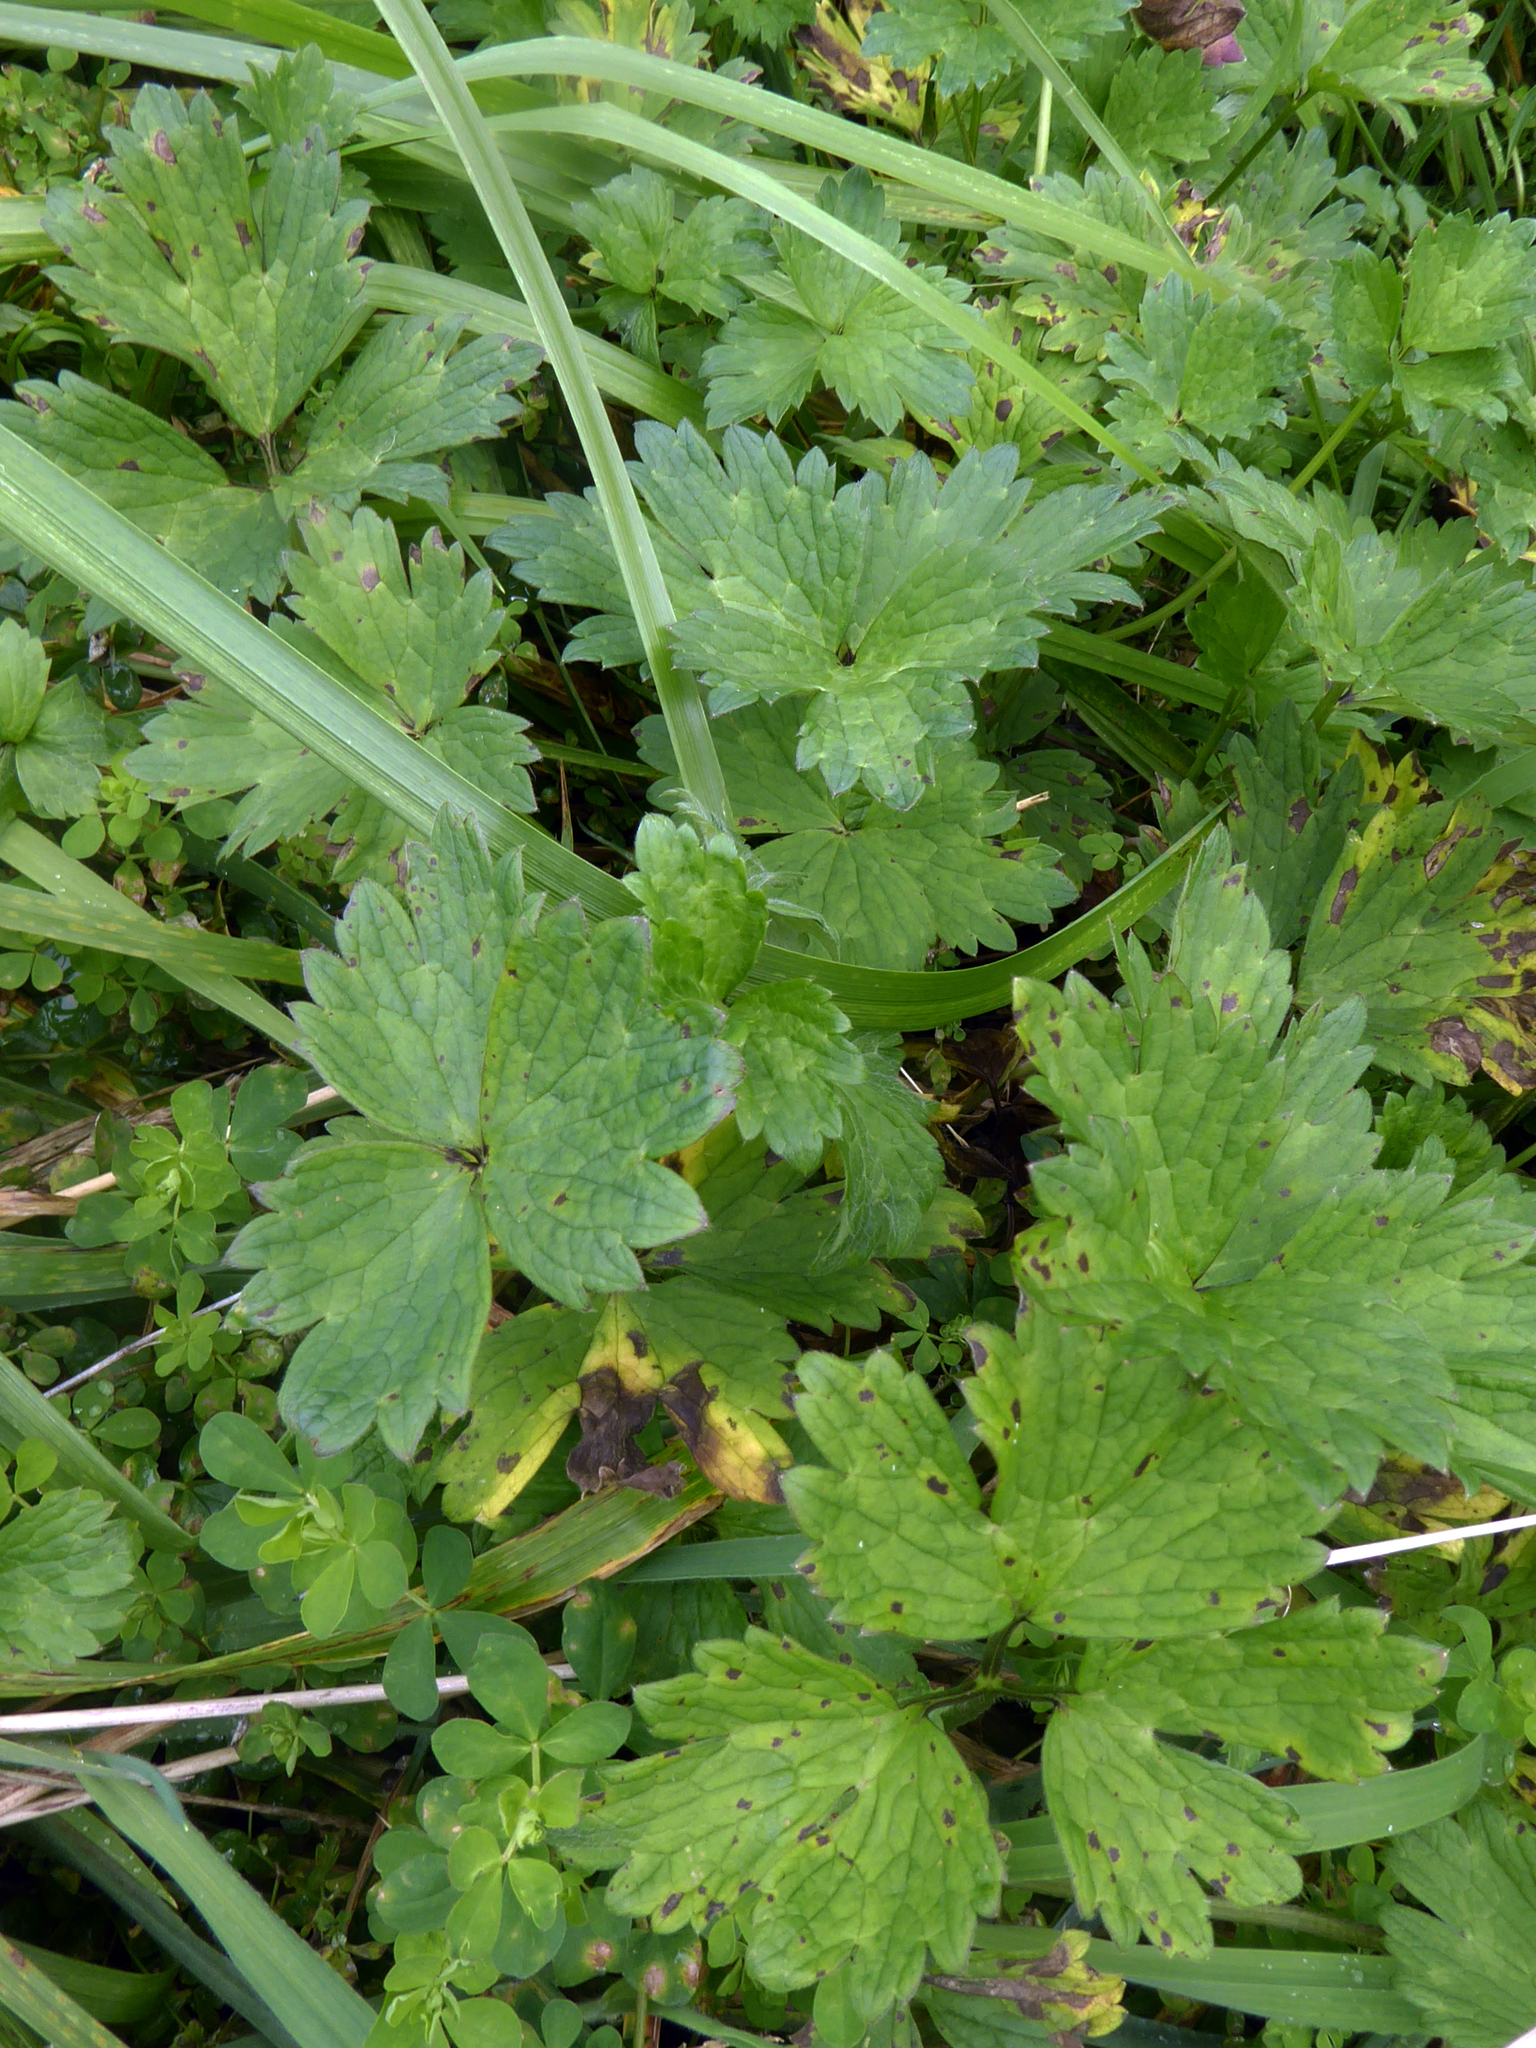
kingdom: Plantae
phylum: Tracheophyta
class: Magnoliopsida
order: Ranunculales
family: Ranunculaceae
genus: Ranunculus
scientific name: Ranunculus repens
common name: Creeping buttercup
